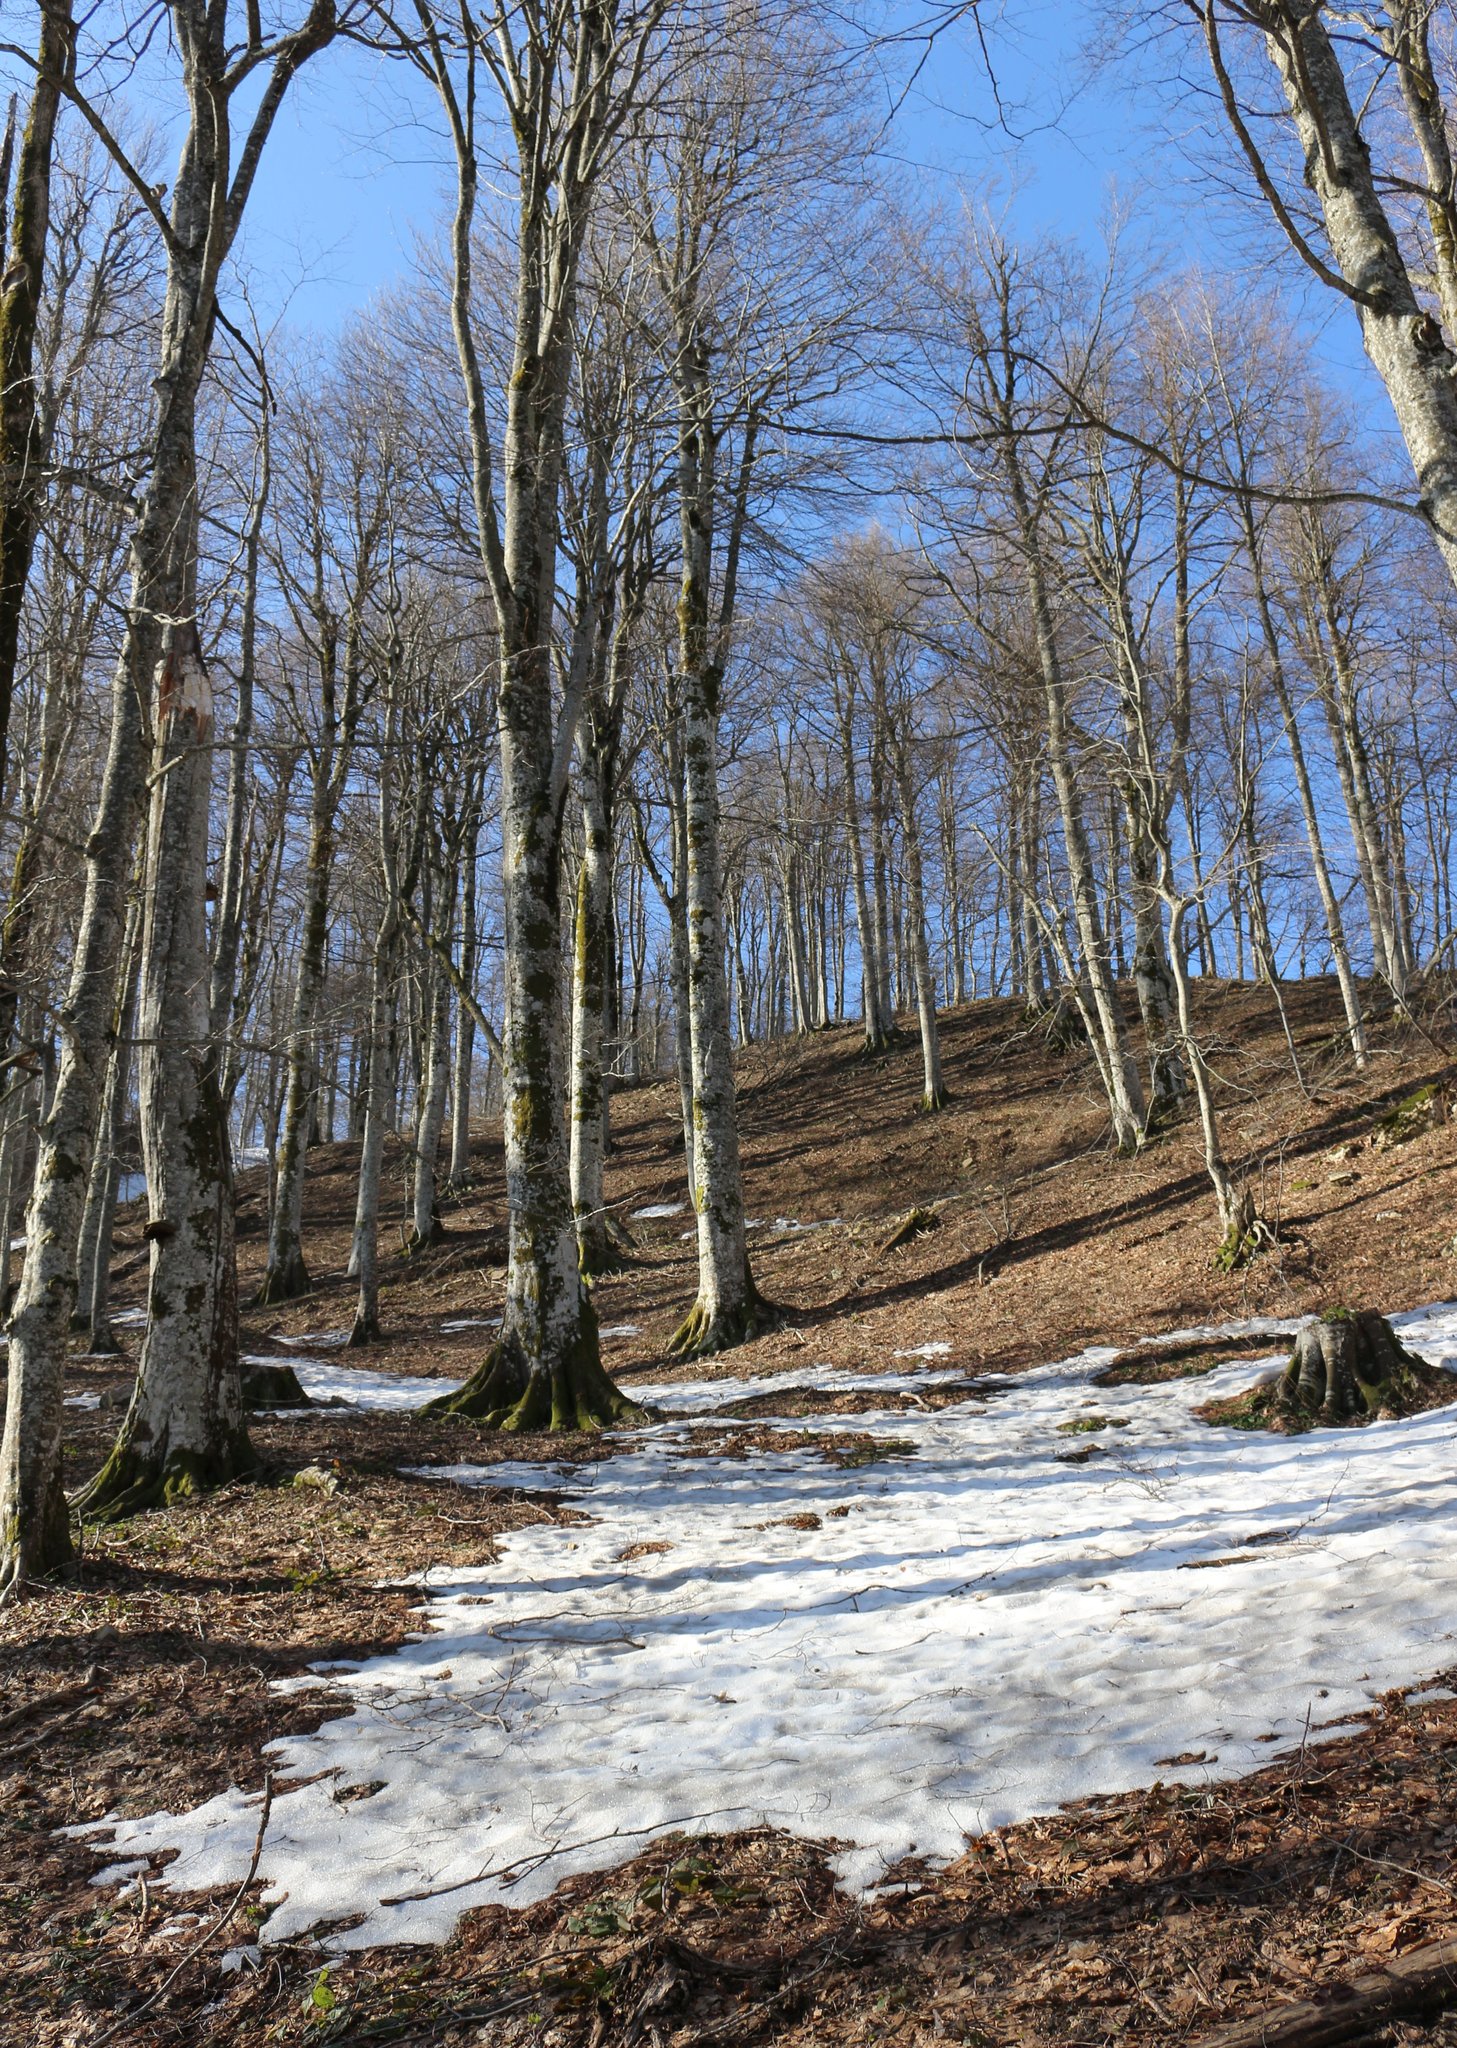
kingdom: Plantae
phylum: Tracheophyta
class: Magnoliopsida
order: Fagales
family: Fagaceae
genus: Fagus
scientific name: Fagus orientalis
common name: Oriental beech
